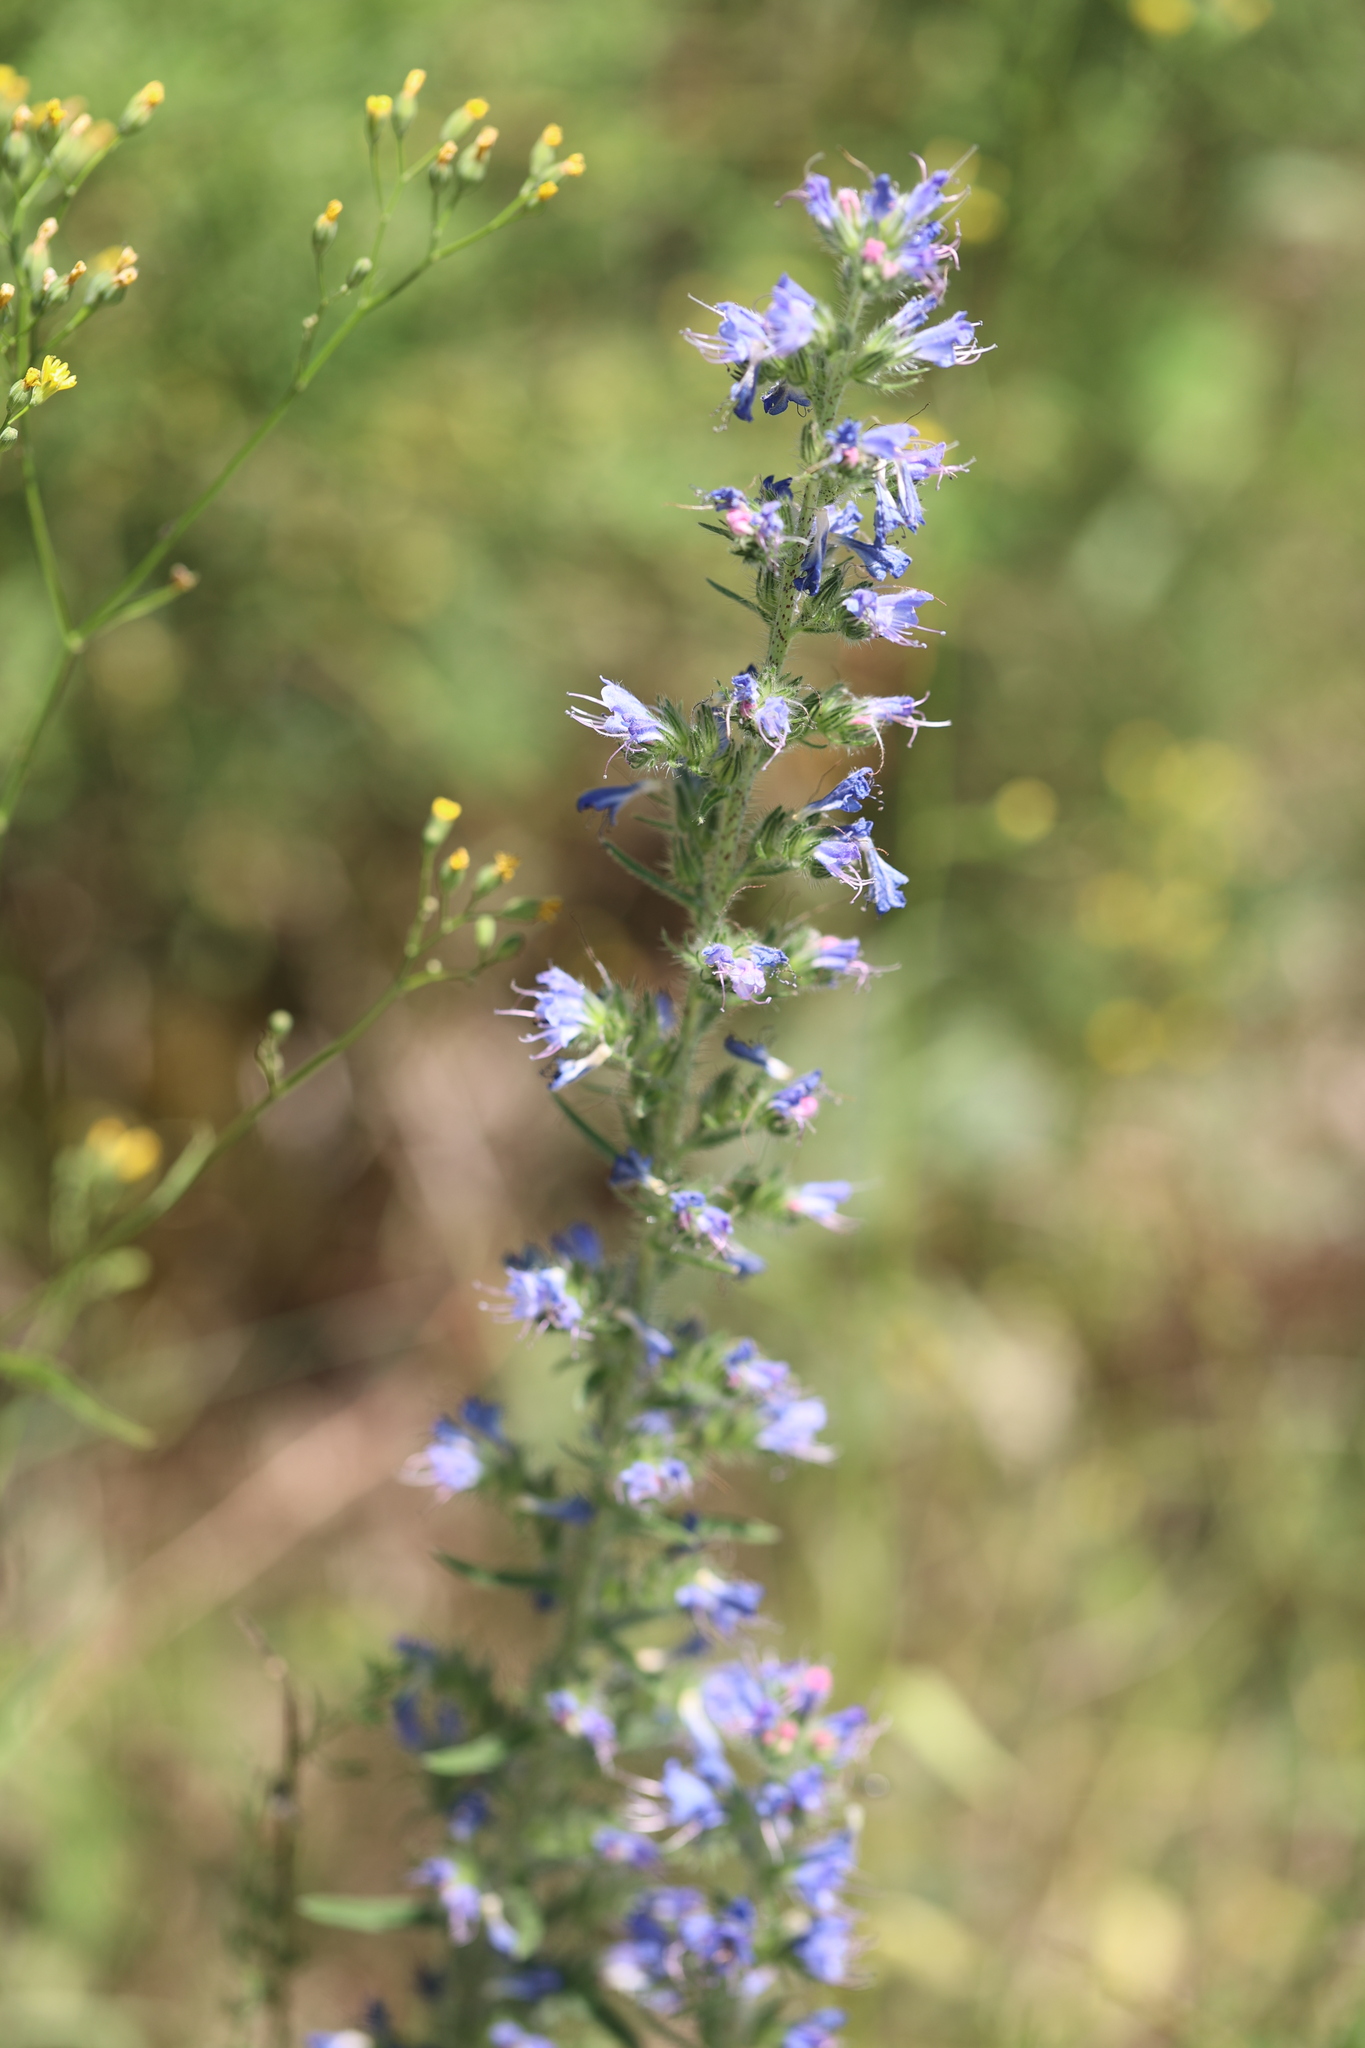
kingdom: Plantae
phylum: Tracheophyta
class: Magnoliopsida
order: Boraginales
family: Boraginaceae
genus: Echium
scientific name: Echium vulgare
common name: Common viper's bugloss
